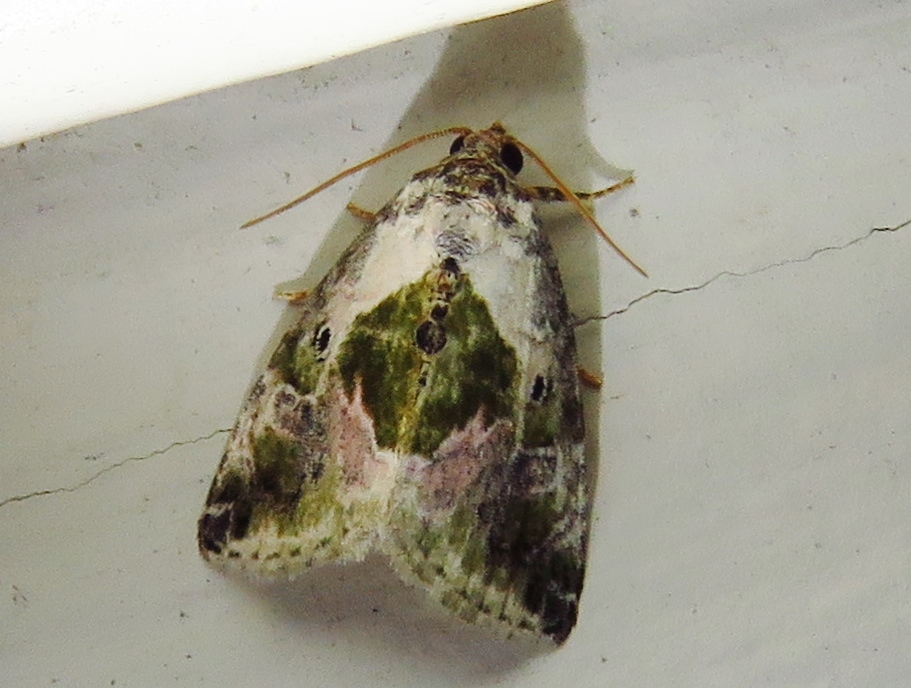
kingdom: Animalia
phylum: Arthropoda
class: Insecta
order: Lepidoptera
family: Noctuidae
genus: Maliattha
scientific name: Maliattha synochitis
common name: Black-dotted glyph
